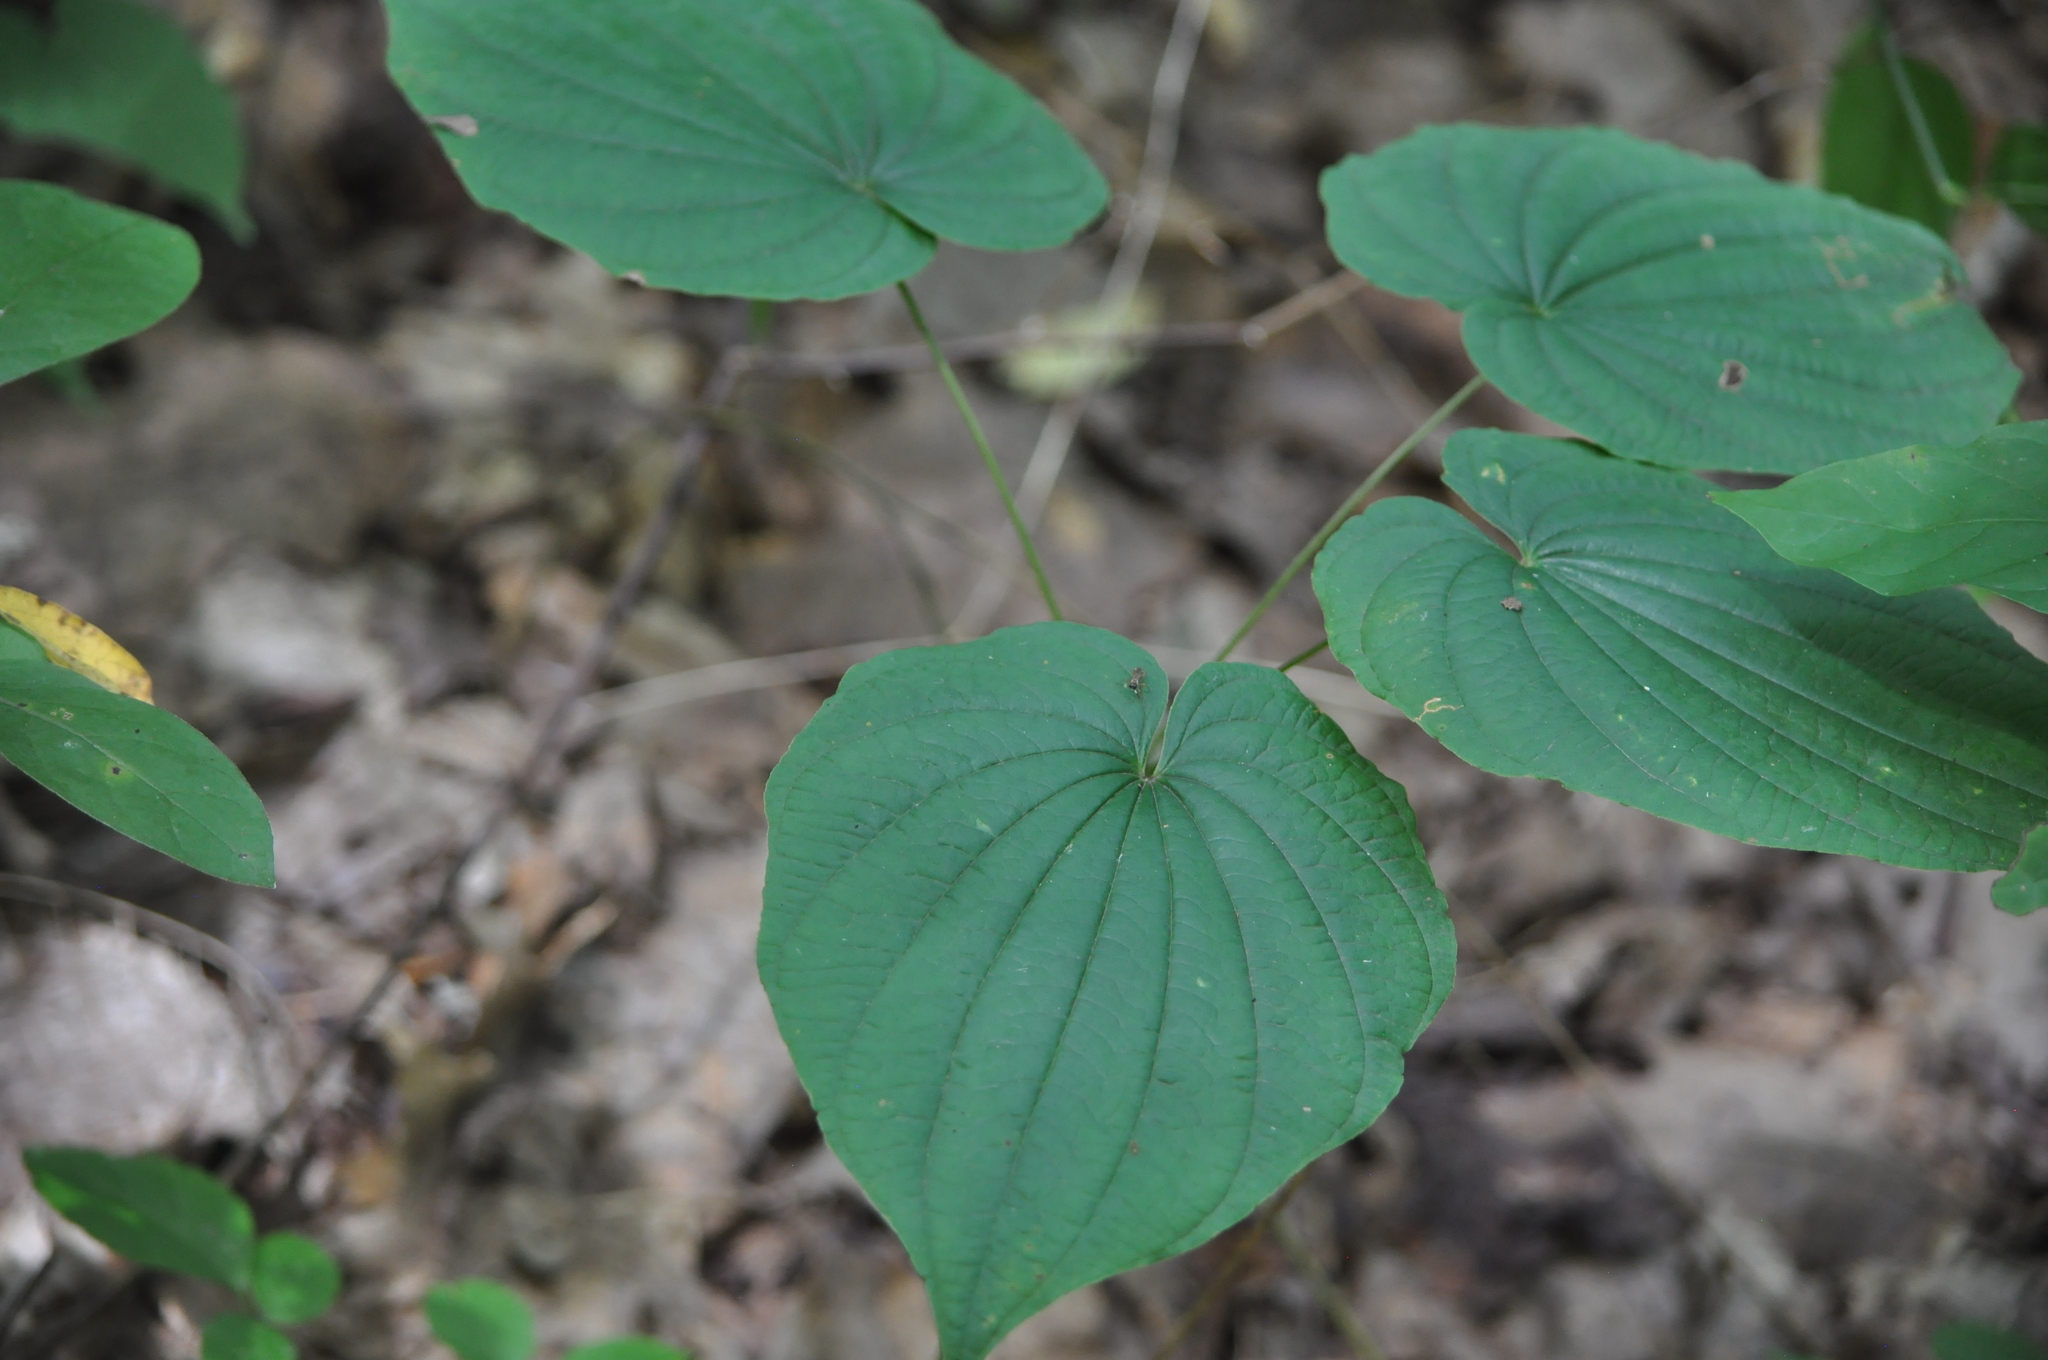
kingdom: Plantae
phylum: Tracheophyta
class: Liliopsida
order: Dioscoreales
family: Dioscoreaceae
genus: Dioscorea
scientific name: Dioscorea villosa
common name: Wild yam
